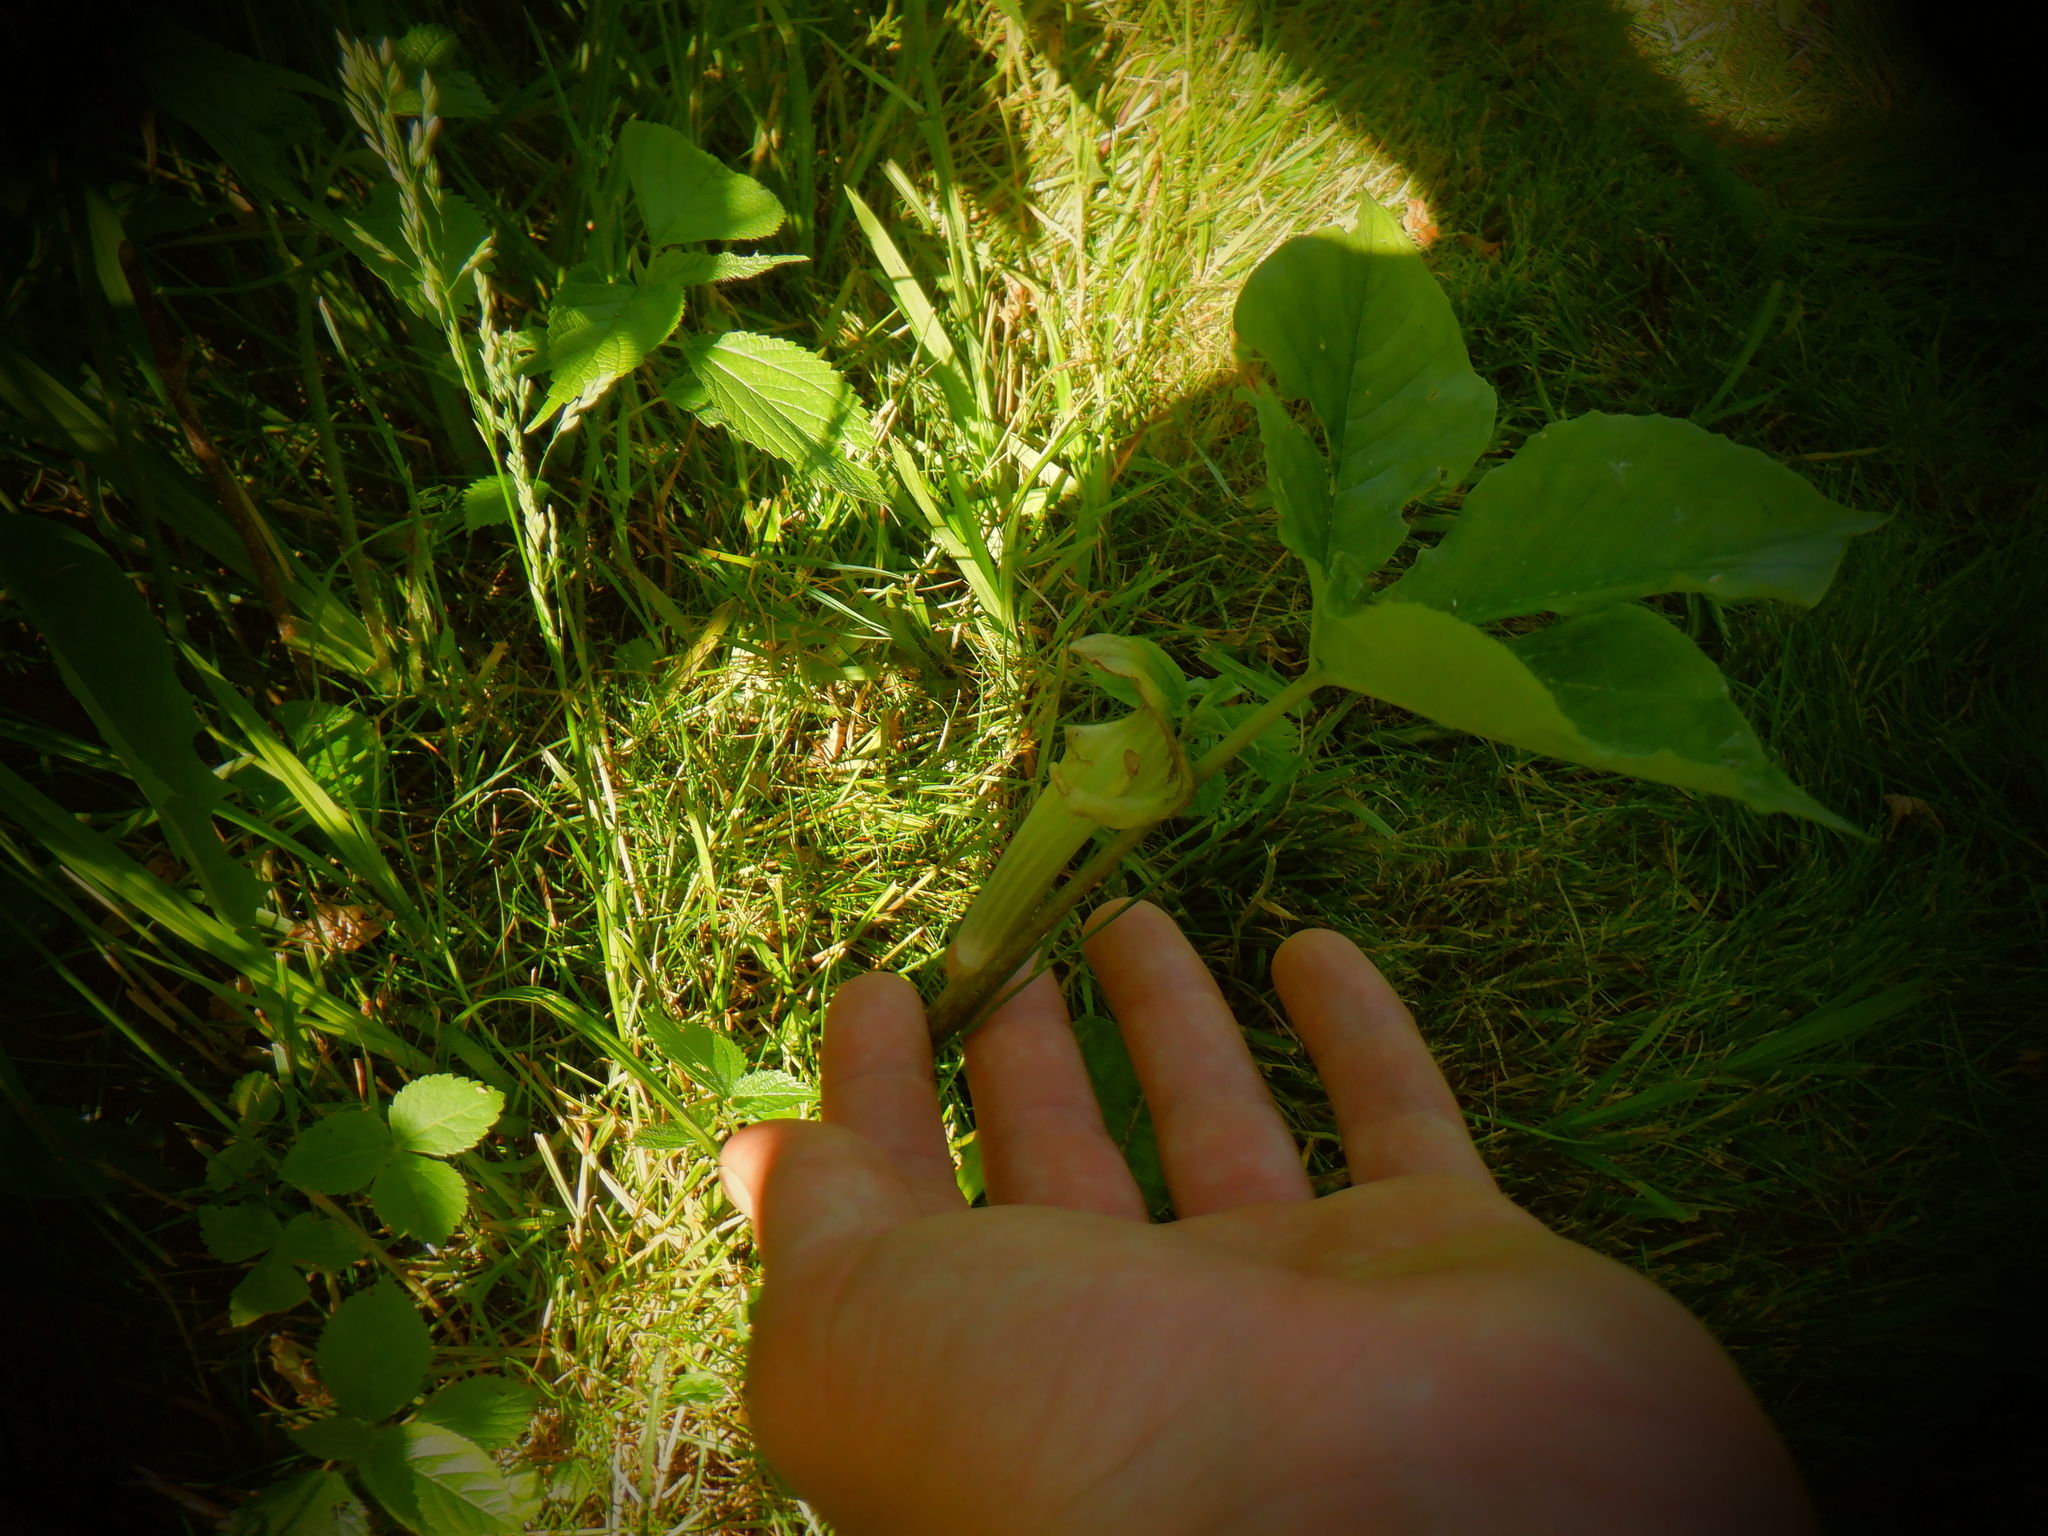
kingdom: Plantae
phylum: Tracheophyta
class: Liliopsida
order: Alismatales
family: Araceae
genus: Arisaema
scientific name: Arisaema triphyllum
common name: Jack-in-the-pulpit
